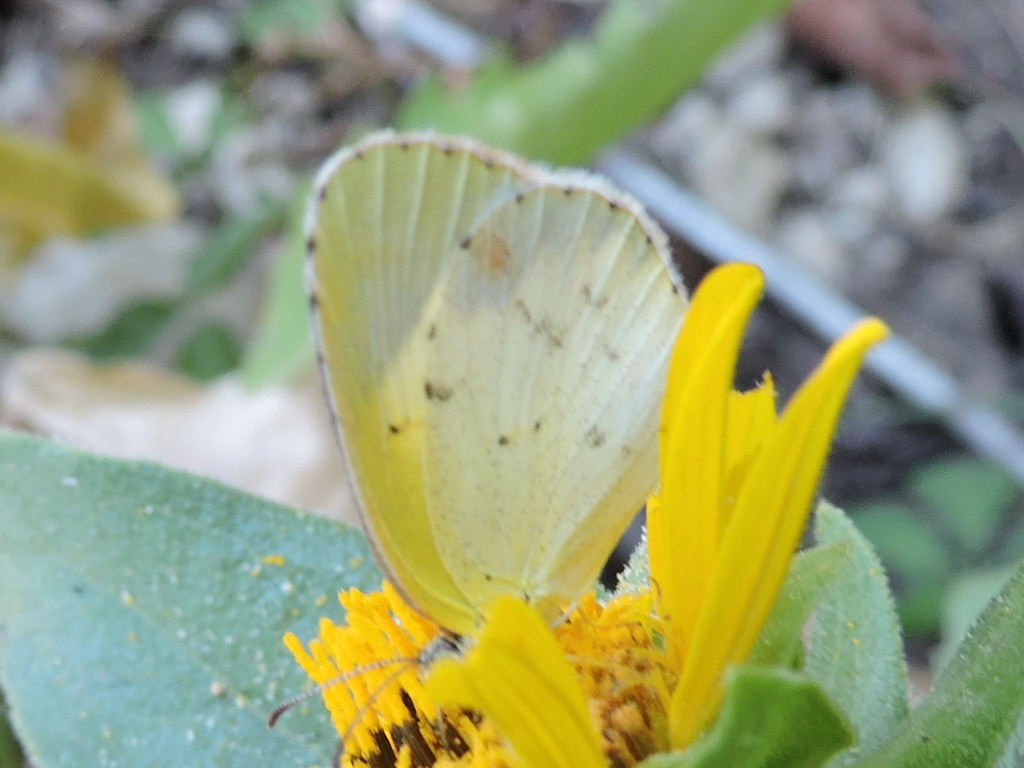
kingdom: Animalia
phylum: Arthropoda
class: Insecta
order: Lepidoptera
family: Pieridae
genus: Pyrisitia
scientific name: Pyrisitia lisa
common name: Little yellow
